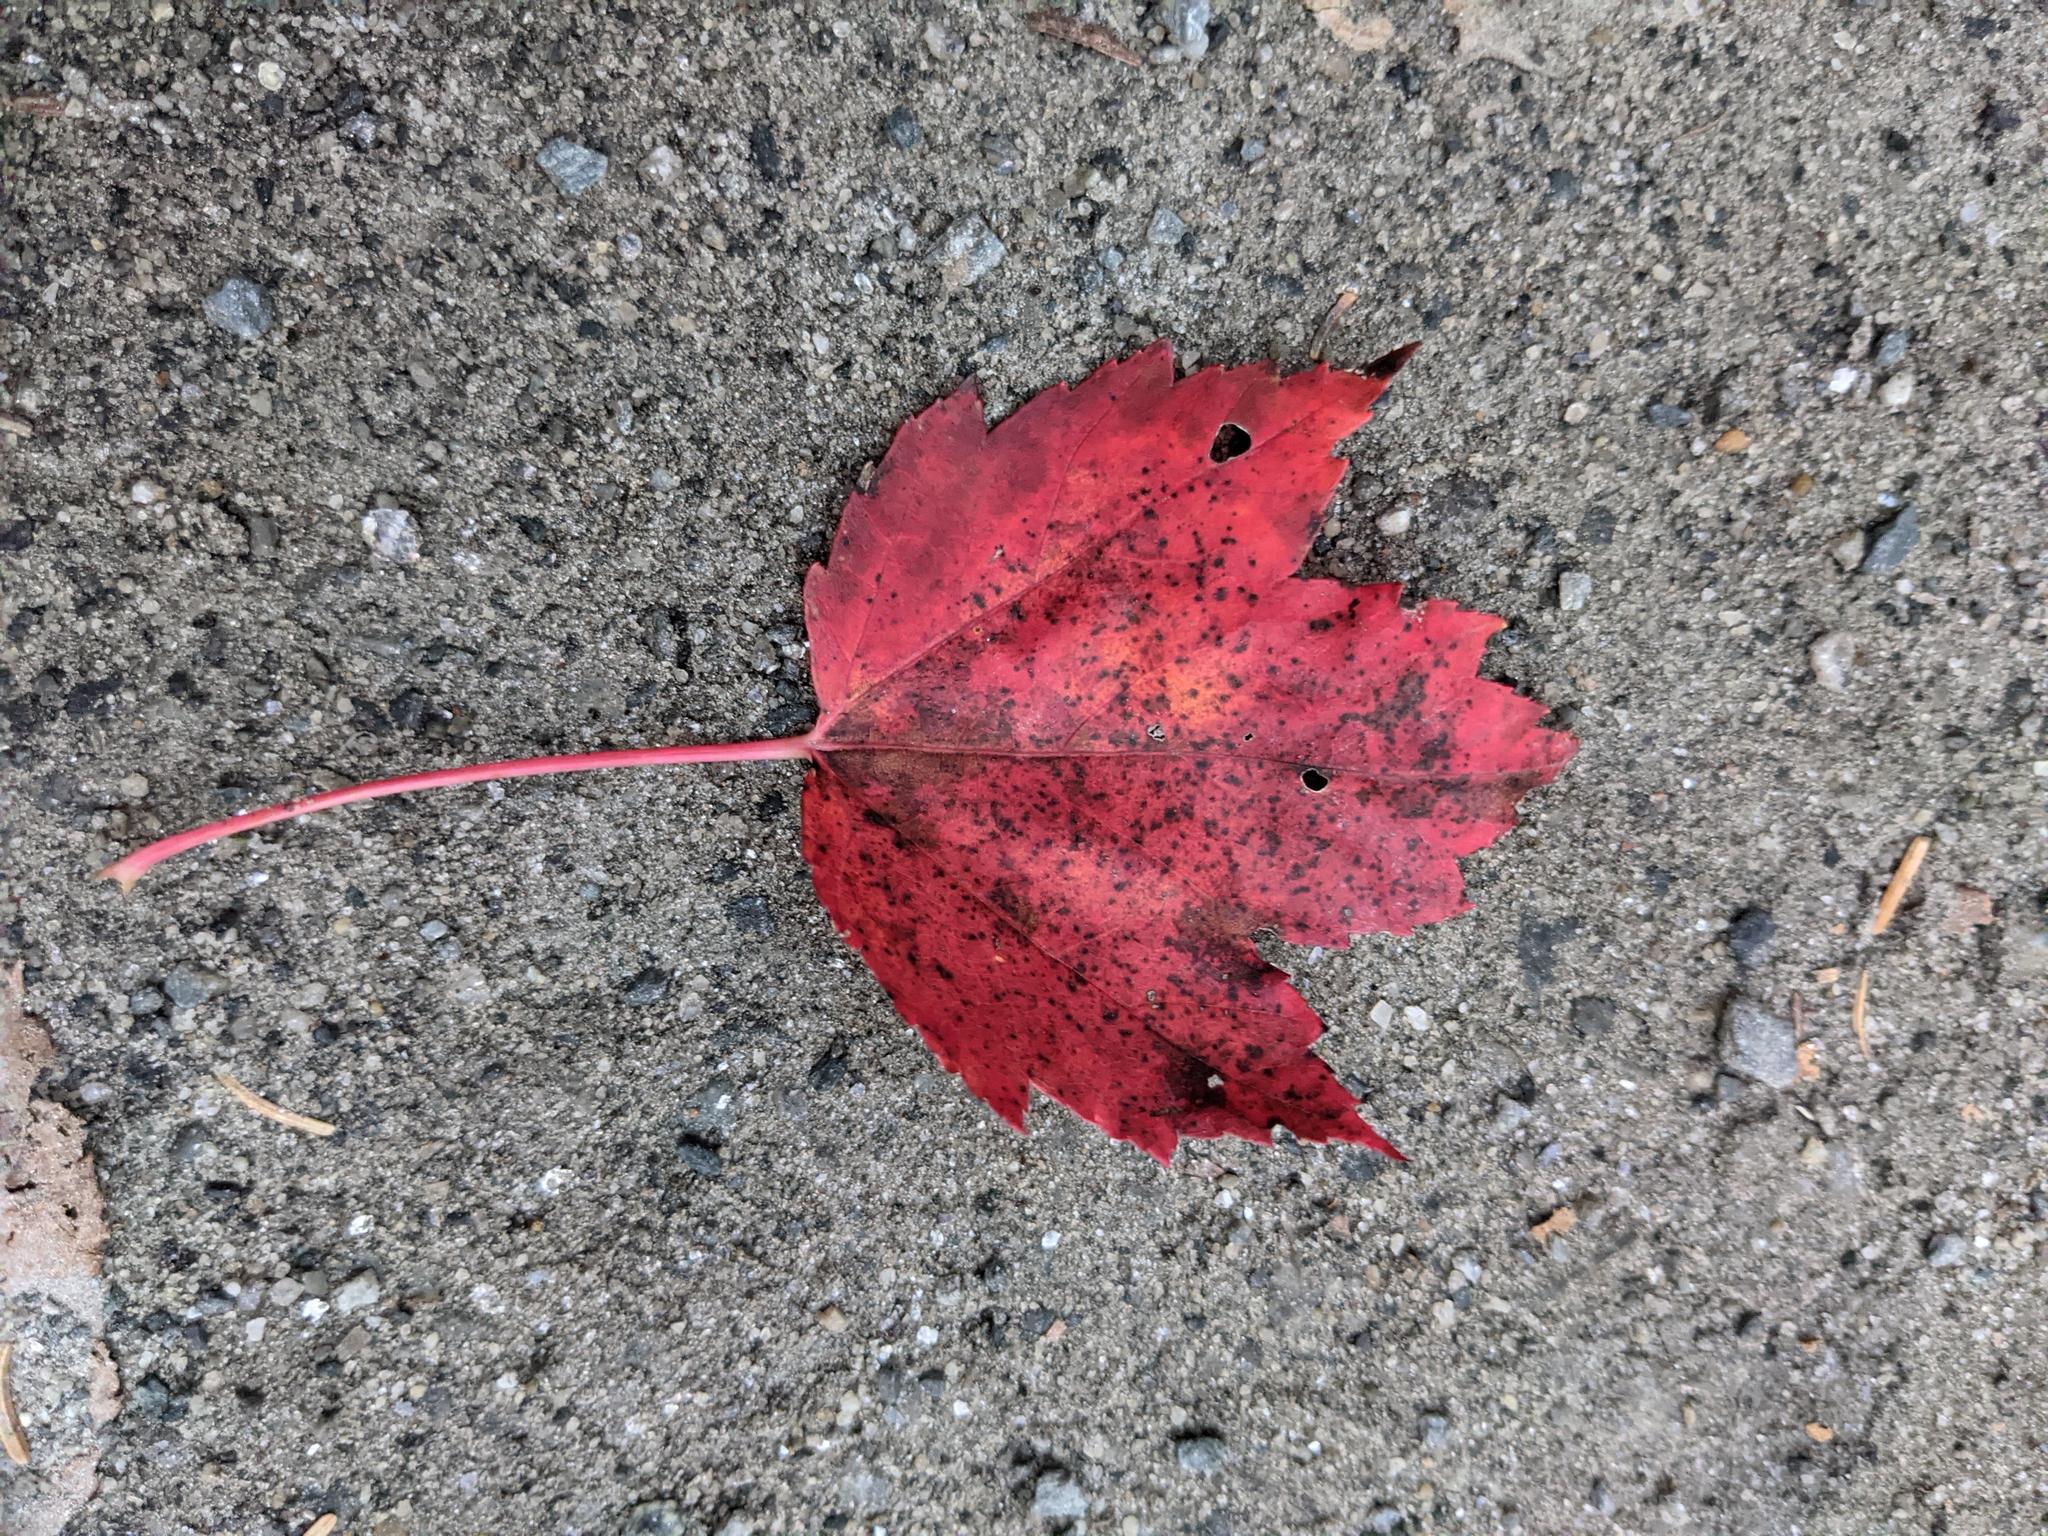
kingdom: Plantae
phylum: Tracheophyta
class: Magnoliopsida
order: Sapindales
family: Sapindaceae
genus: Acer
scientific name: Acer rubrum
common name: Red maple
